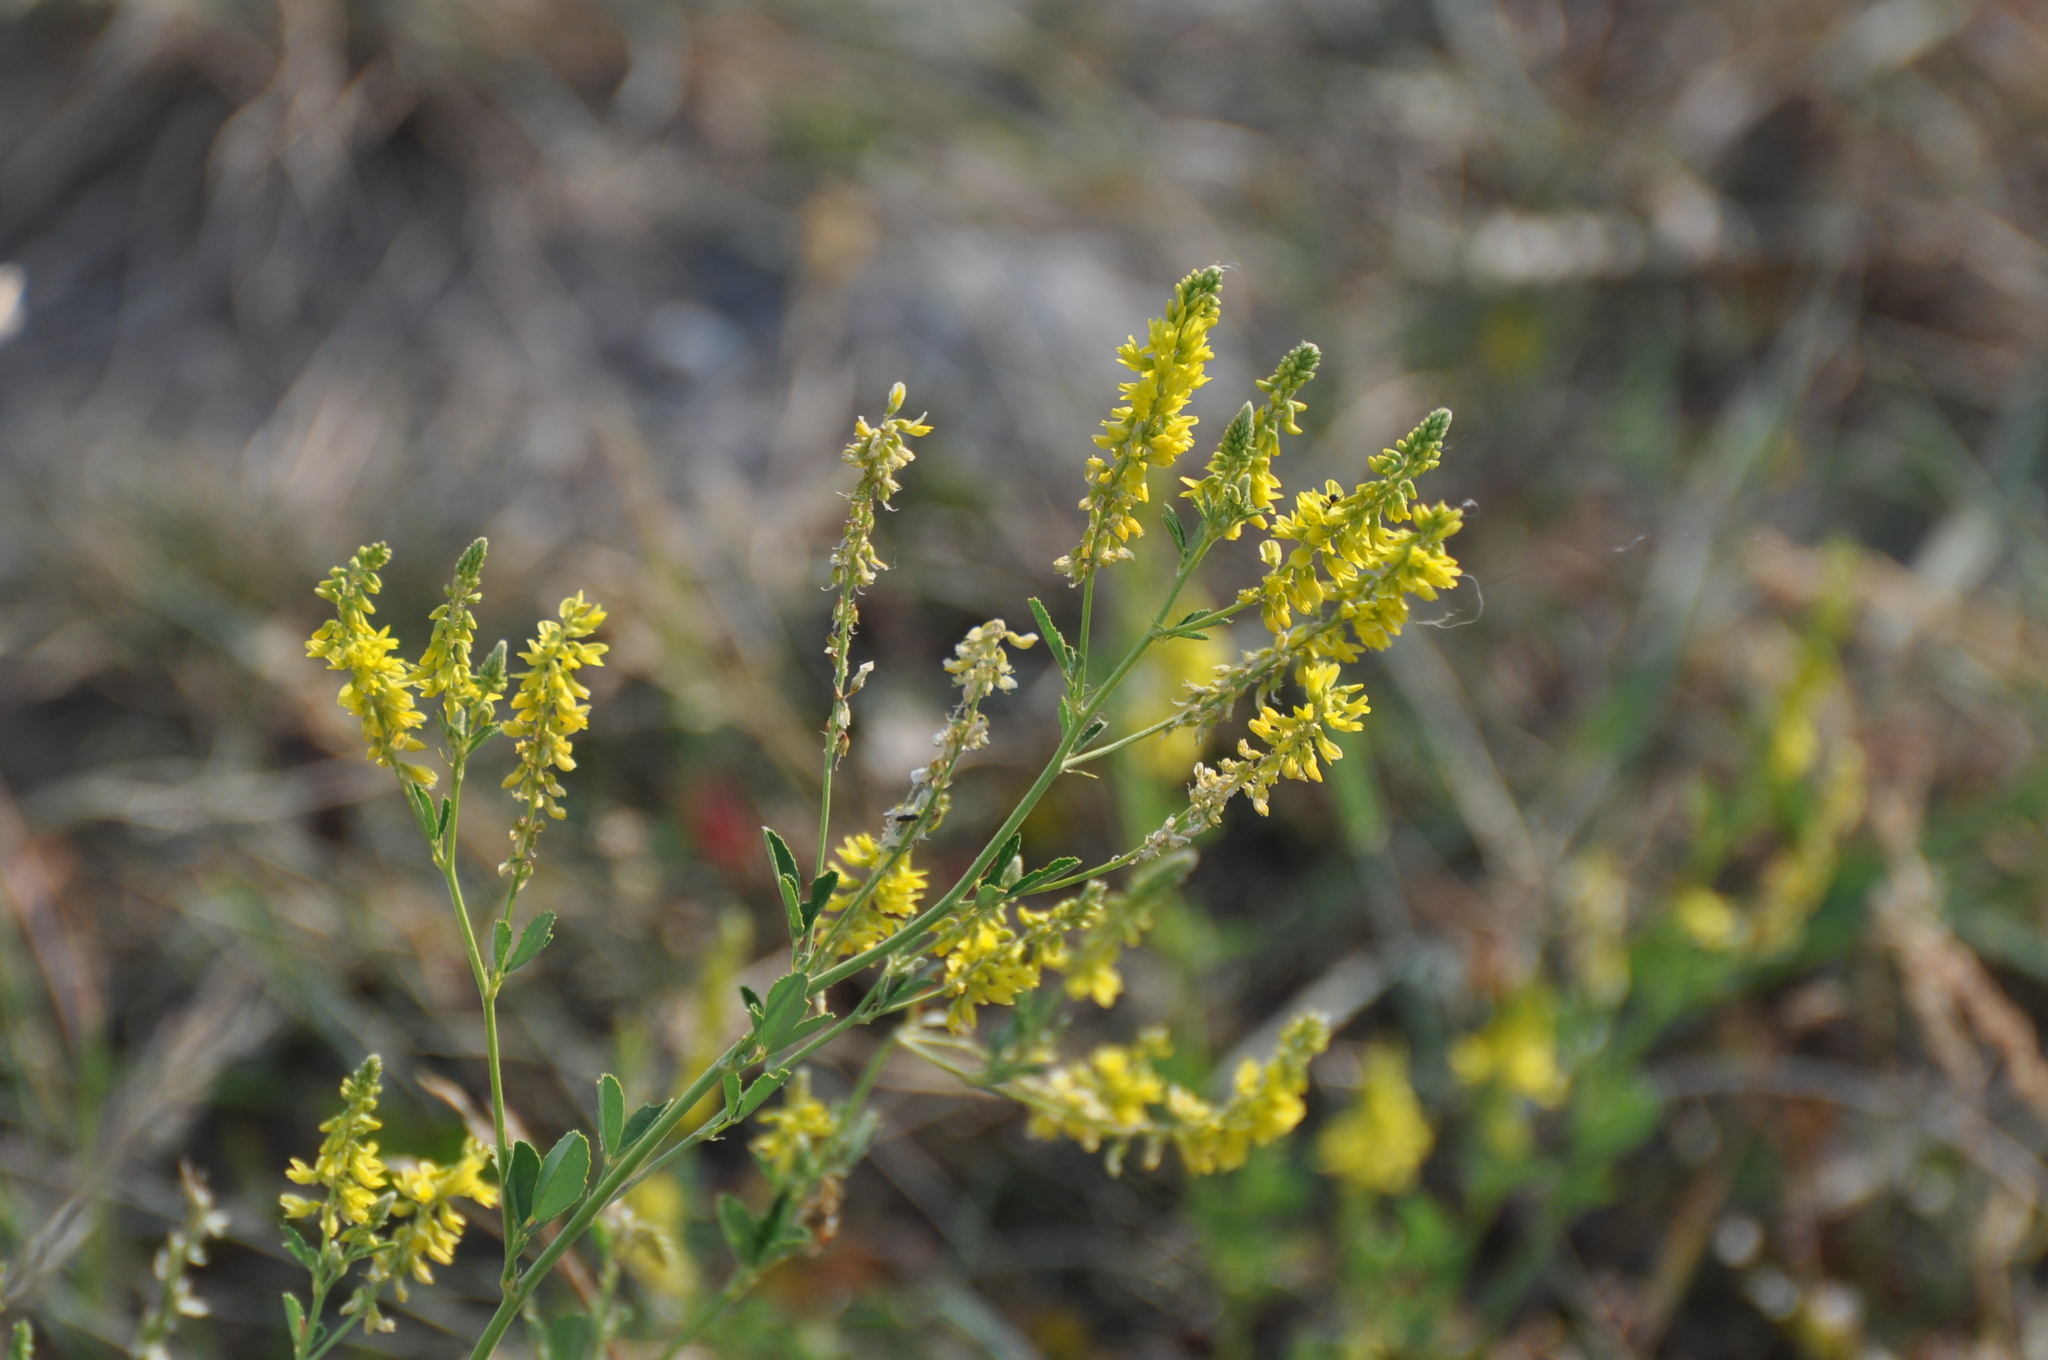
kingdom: Plantae
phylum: Tracheophyta
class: Magnoliopsida
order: Fabales
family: Fabaceae
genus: Melilotus
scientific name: Melilotus officinalis
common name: Sweetclover
